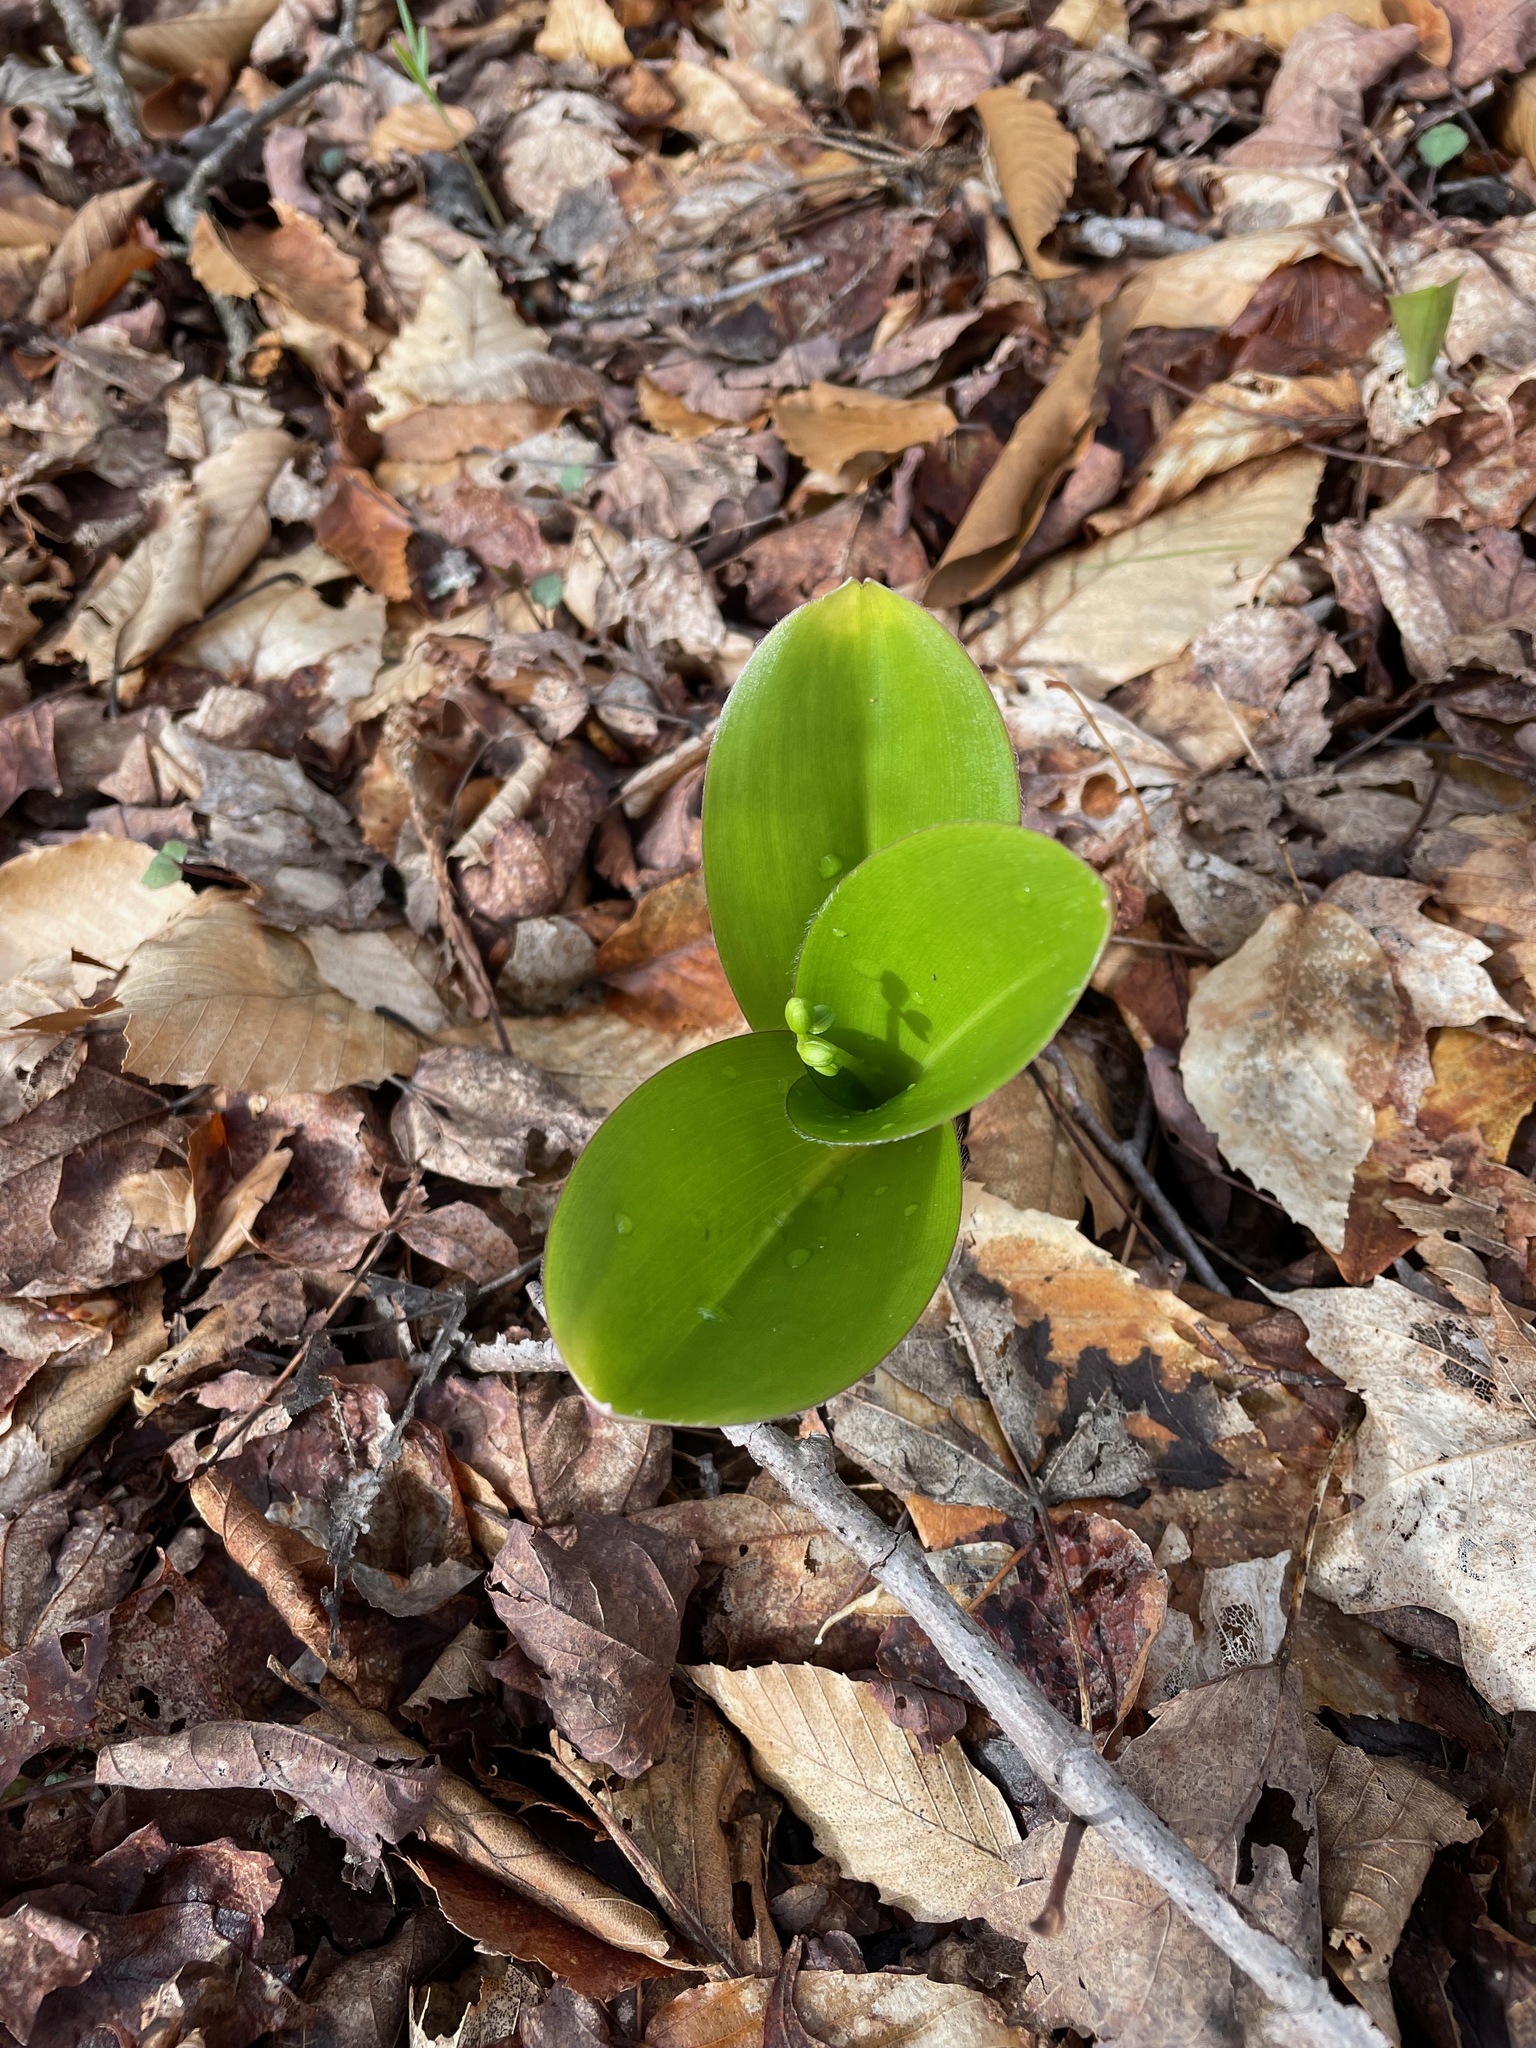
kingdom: Plantae
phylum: Tracheophyta
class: Liliopsida
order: Liliales
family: Liliaceae
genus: Clintonia
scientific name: Clintonia borealis
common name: Yellow clintonia
